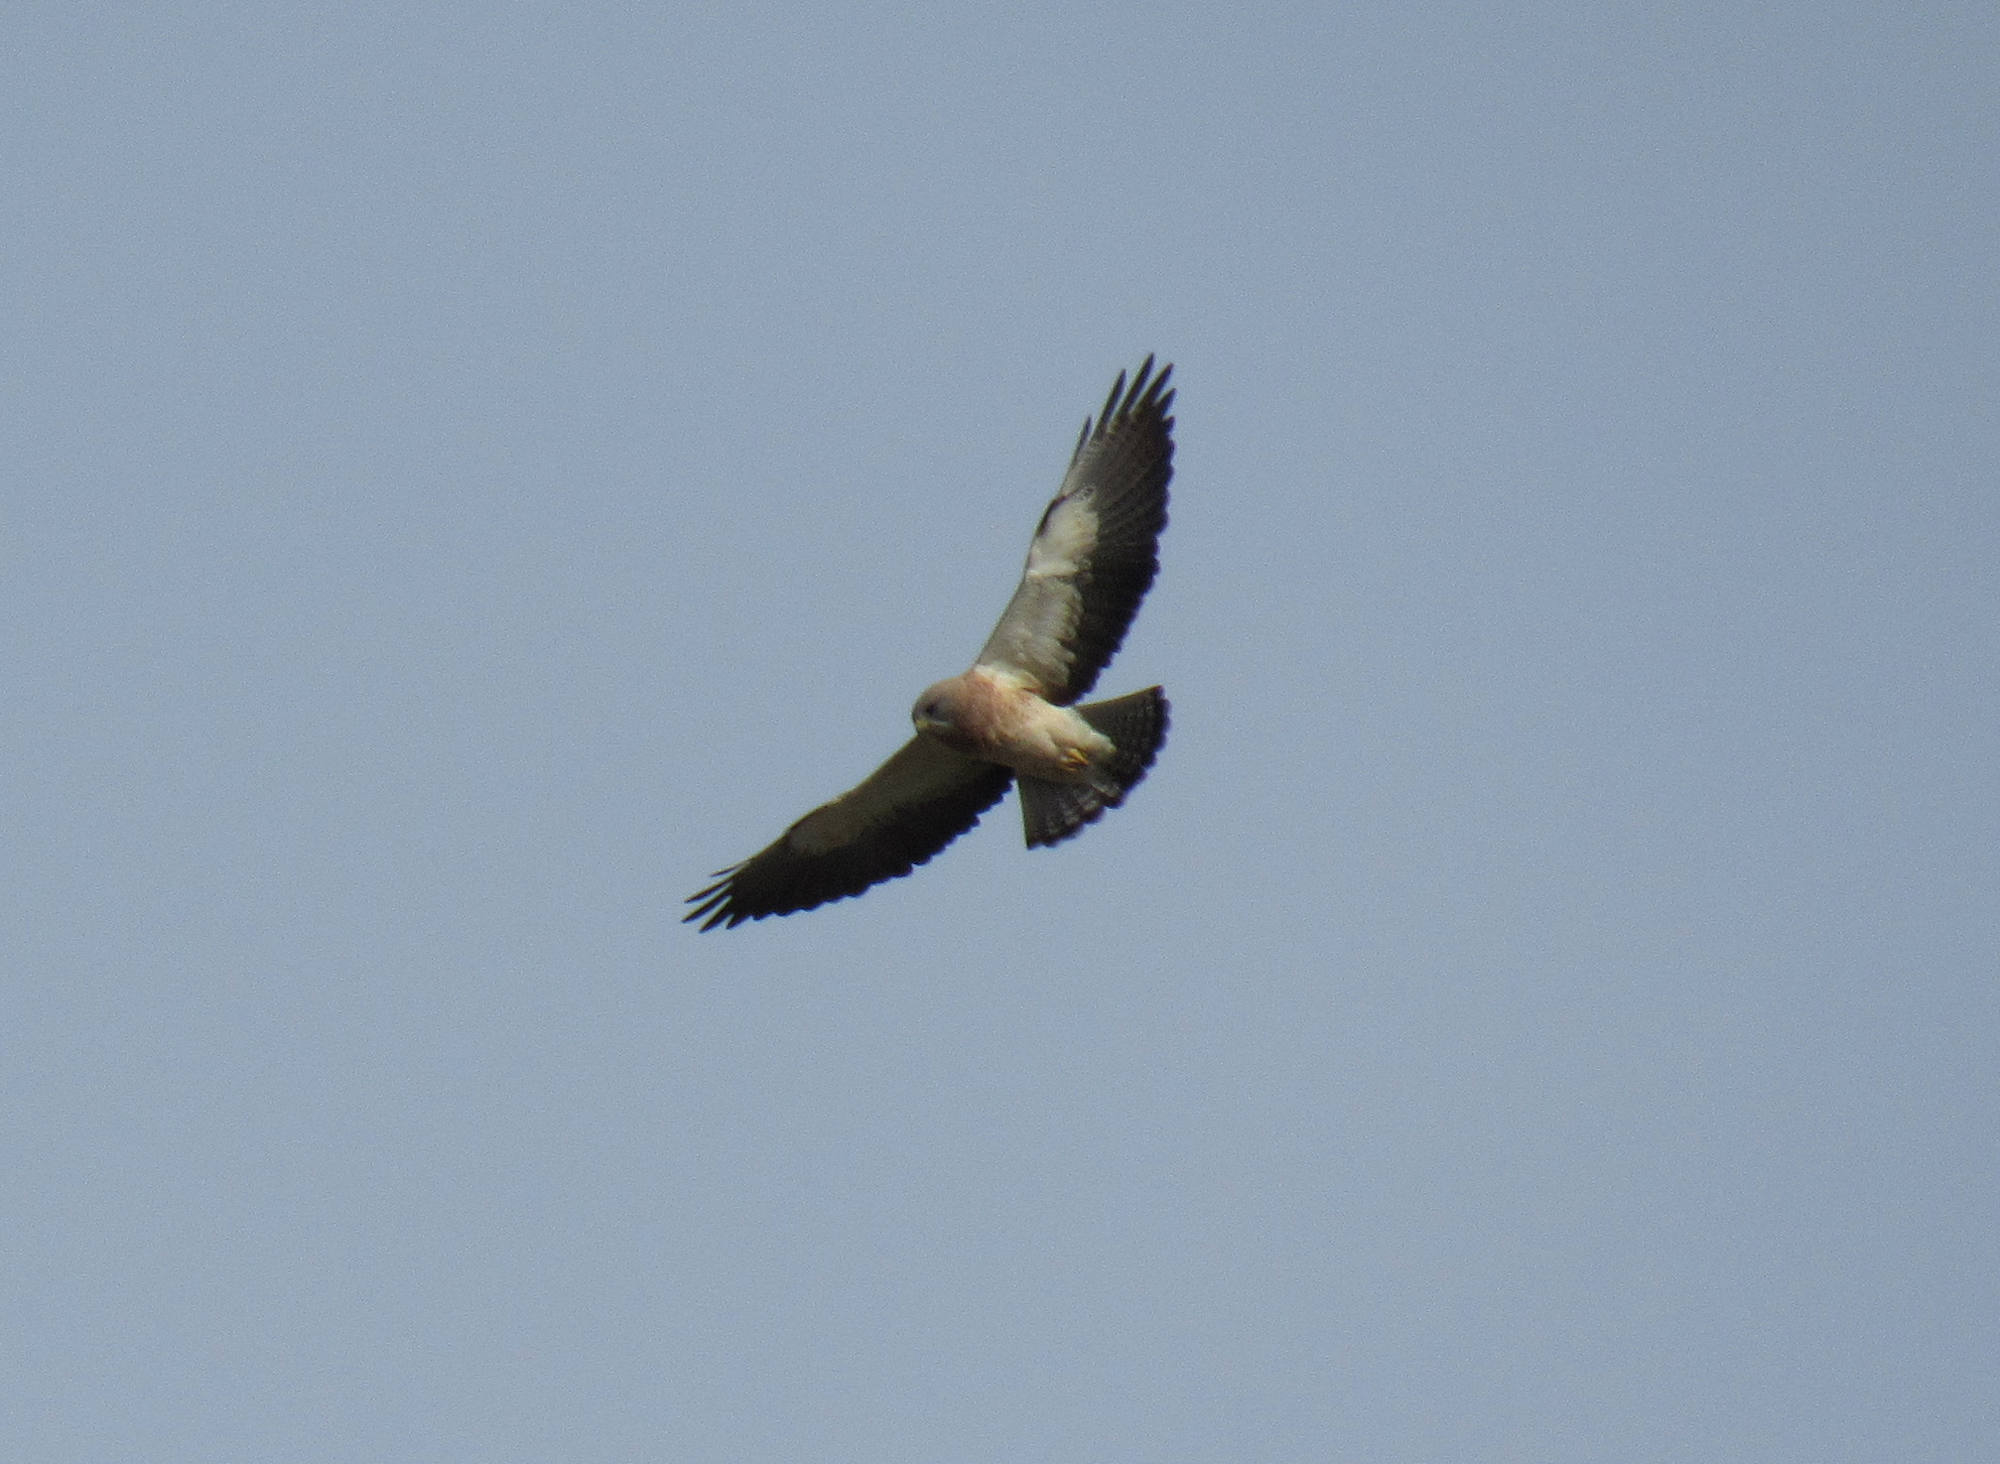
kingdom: Animalia
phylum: Chordata
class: Aves
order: Accipitriformes
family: Accipitridae
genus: Buteo
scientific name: Buteo swainsoni
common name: Swainson's hawk
